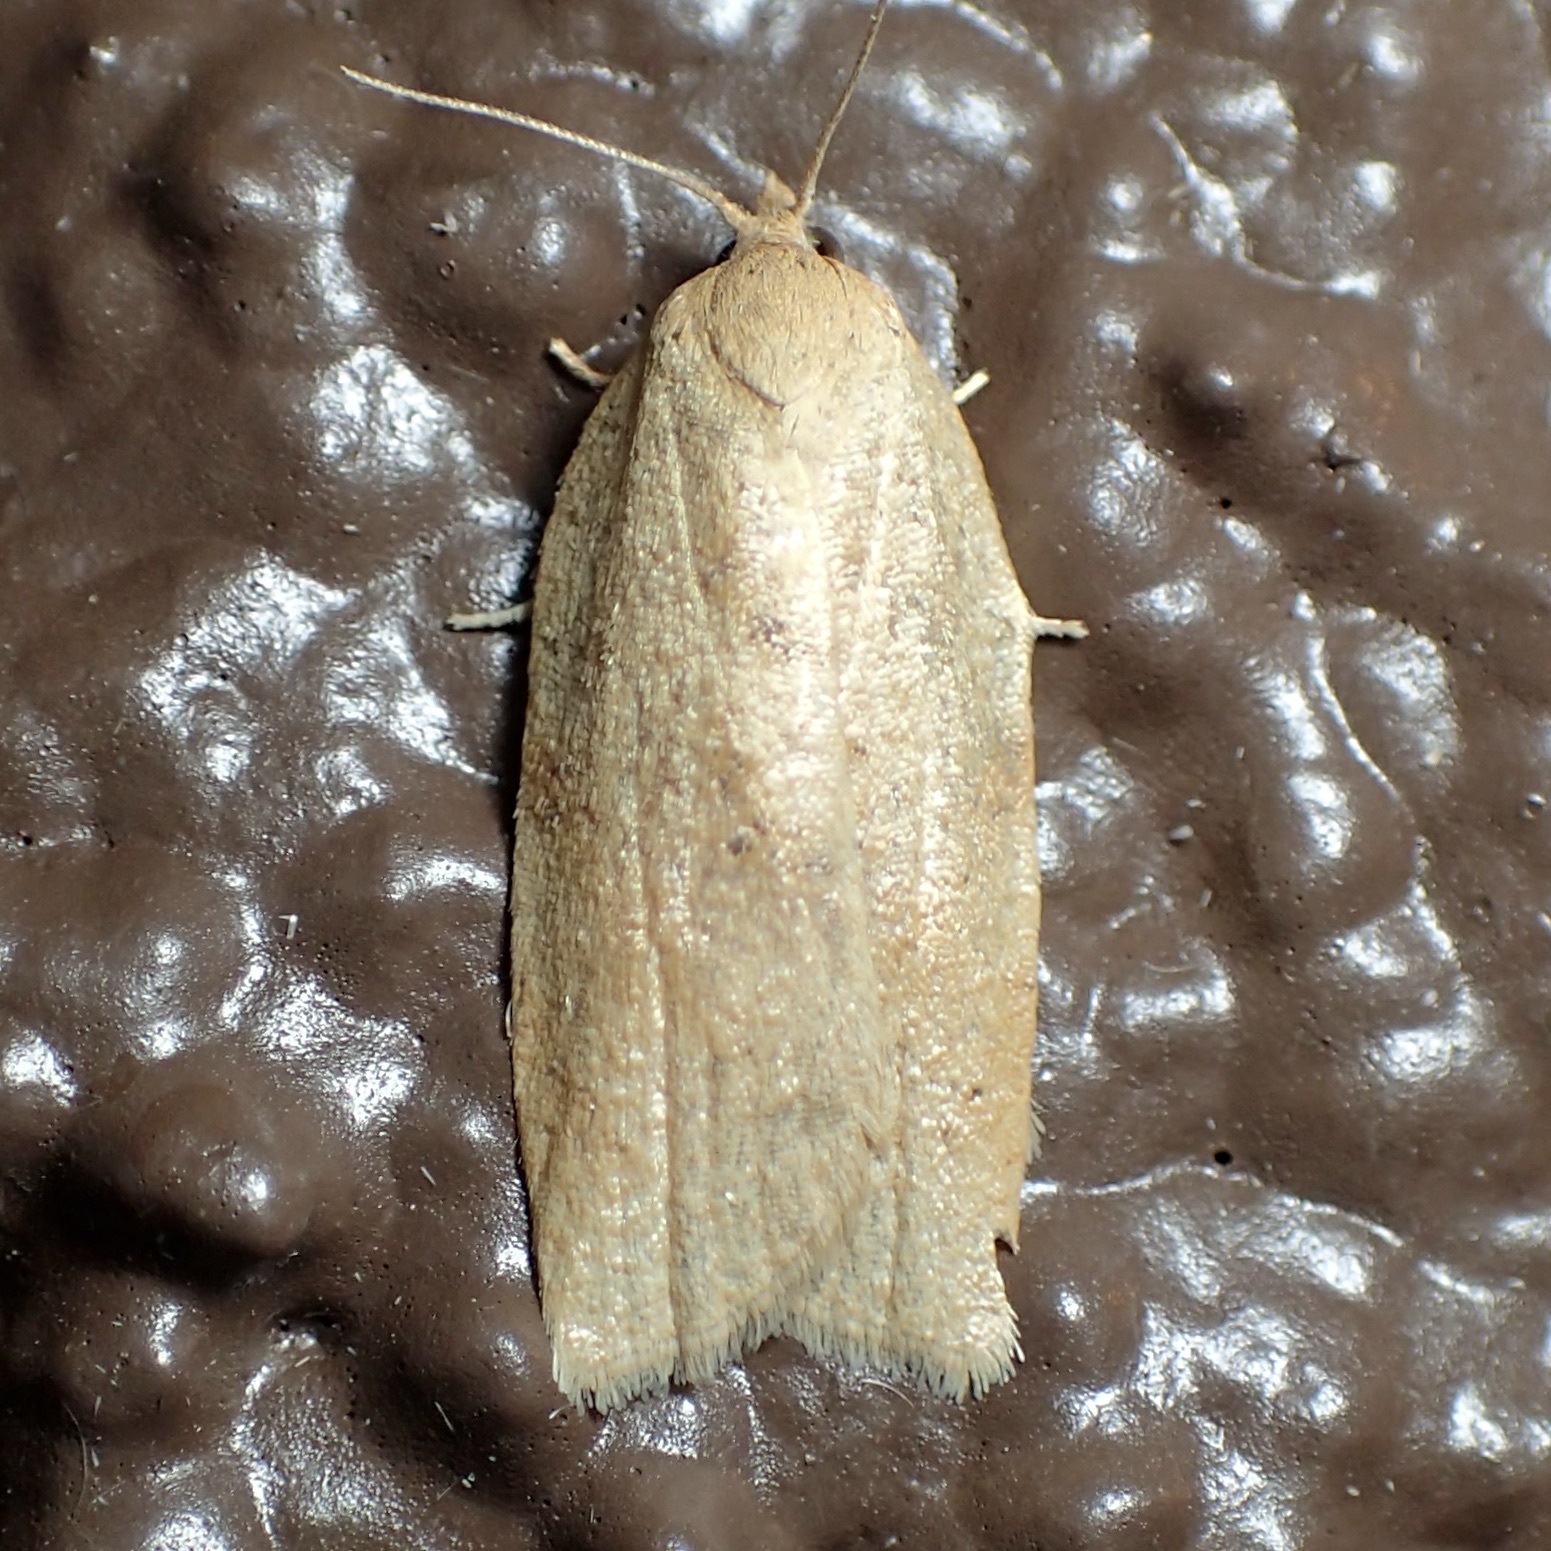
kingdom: Animalia
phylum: Arthropoda
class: Insecta
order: Lepidoptera
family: Tortricidae
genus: Amorbia
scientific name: Amorbia cuneanum
